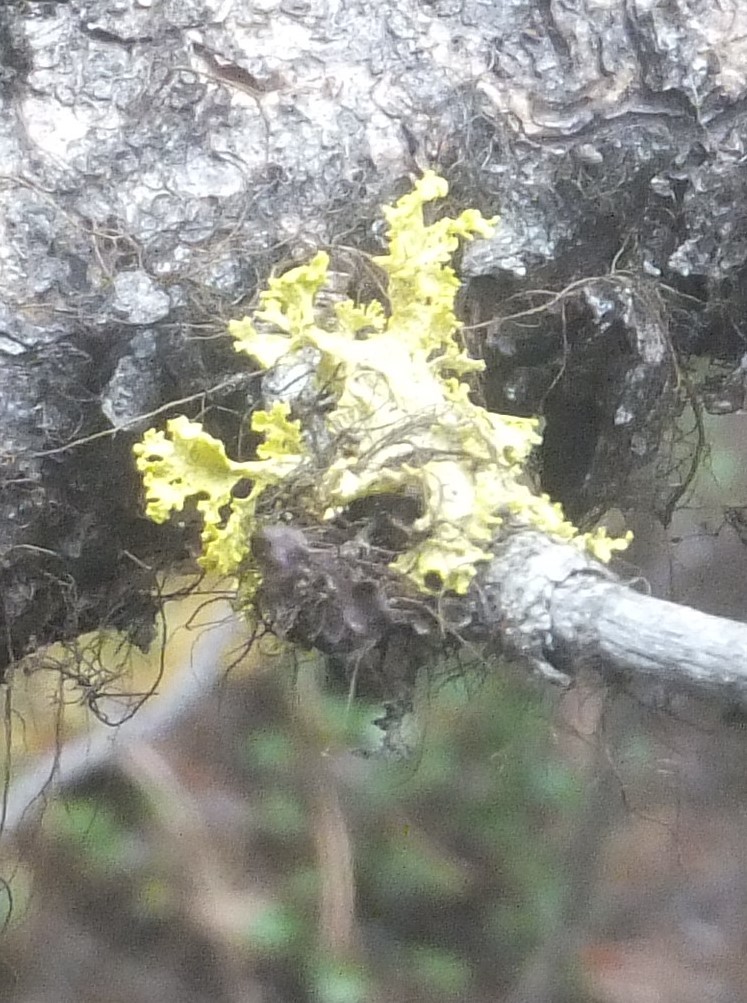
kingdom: Fungi
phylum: Ascomycota
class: Lecanoromycetes
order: Lecanorales
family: Parmeliaceae
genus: Vulpicida
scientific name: Vulpicida canadensis
